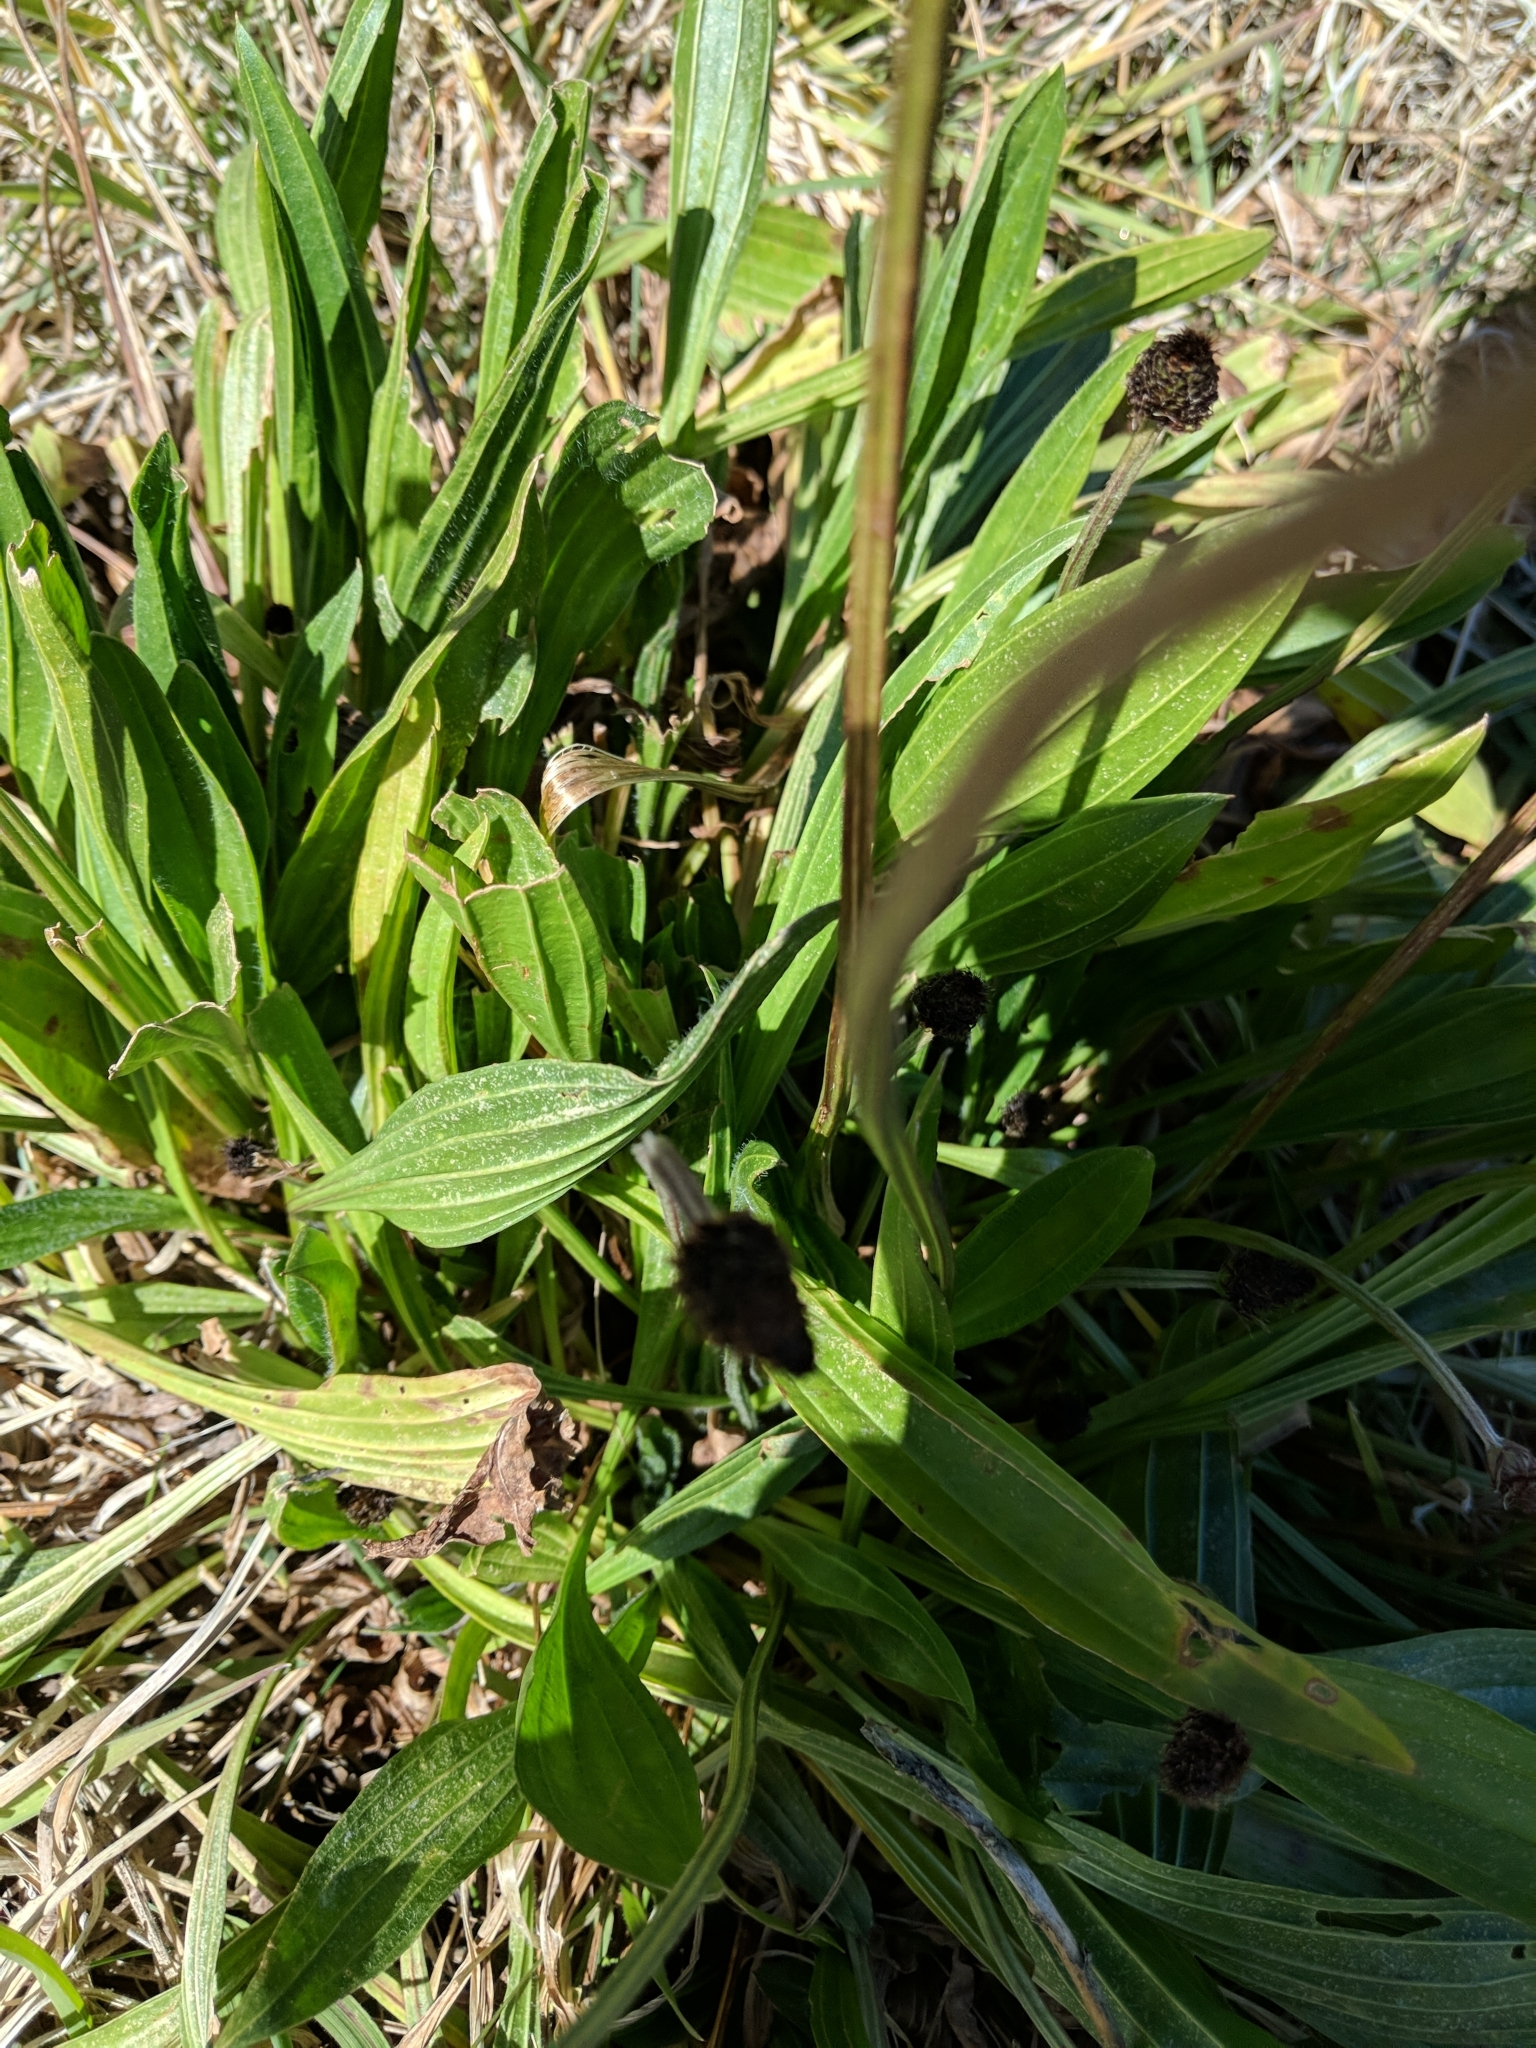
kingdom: Plantae
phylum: Tracheophyta
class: Magnoliopsida
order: Lamiales
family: Plantaginaceae
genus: Plantago
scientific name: Plantago lanceolata
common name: Ribwort plantain
